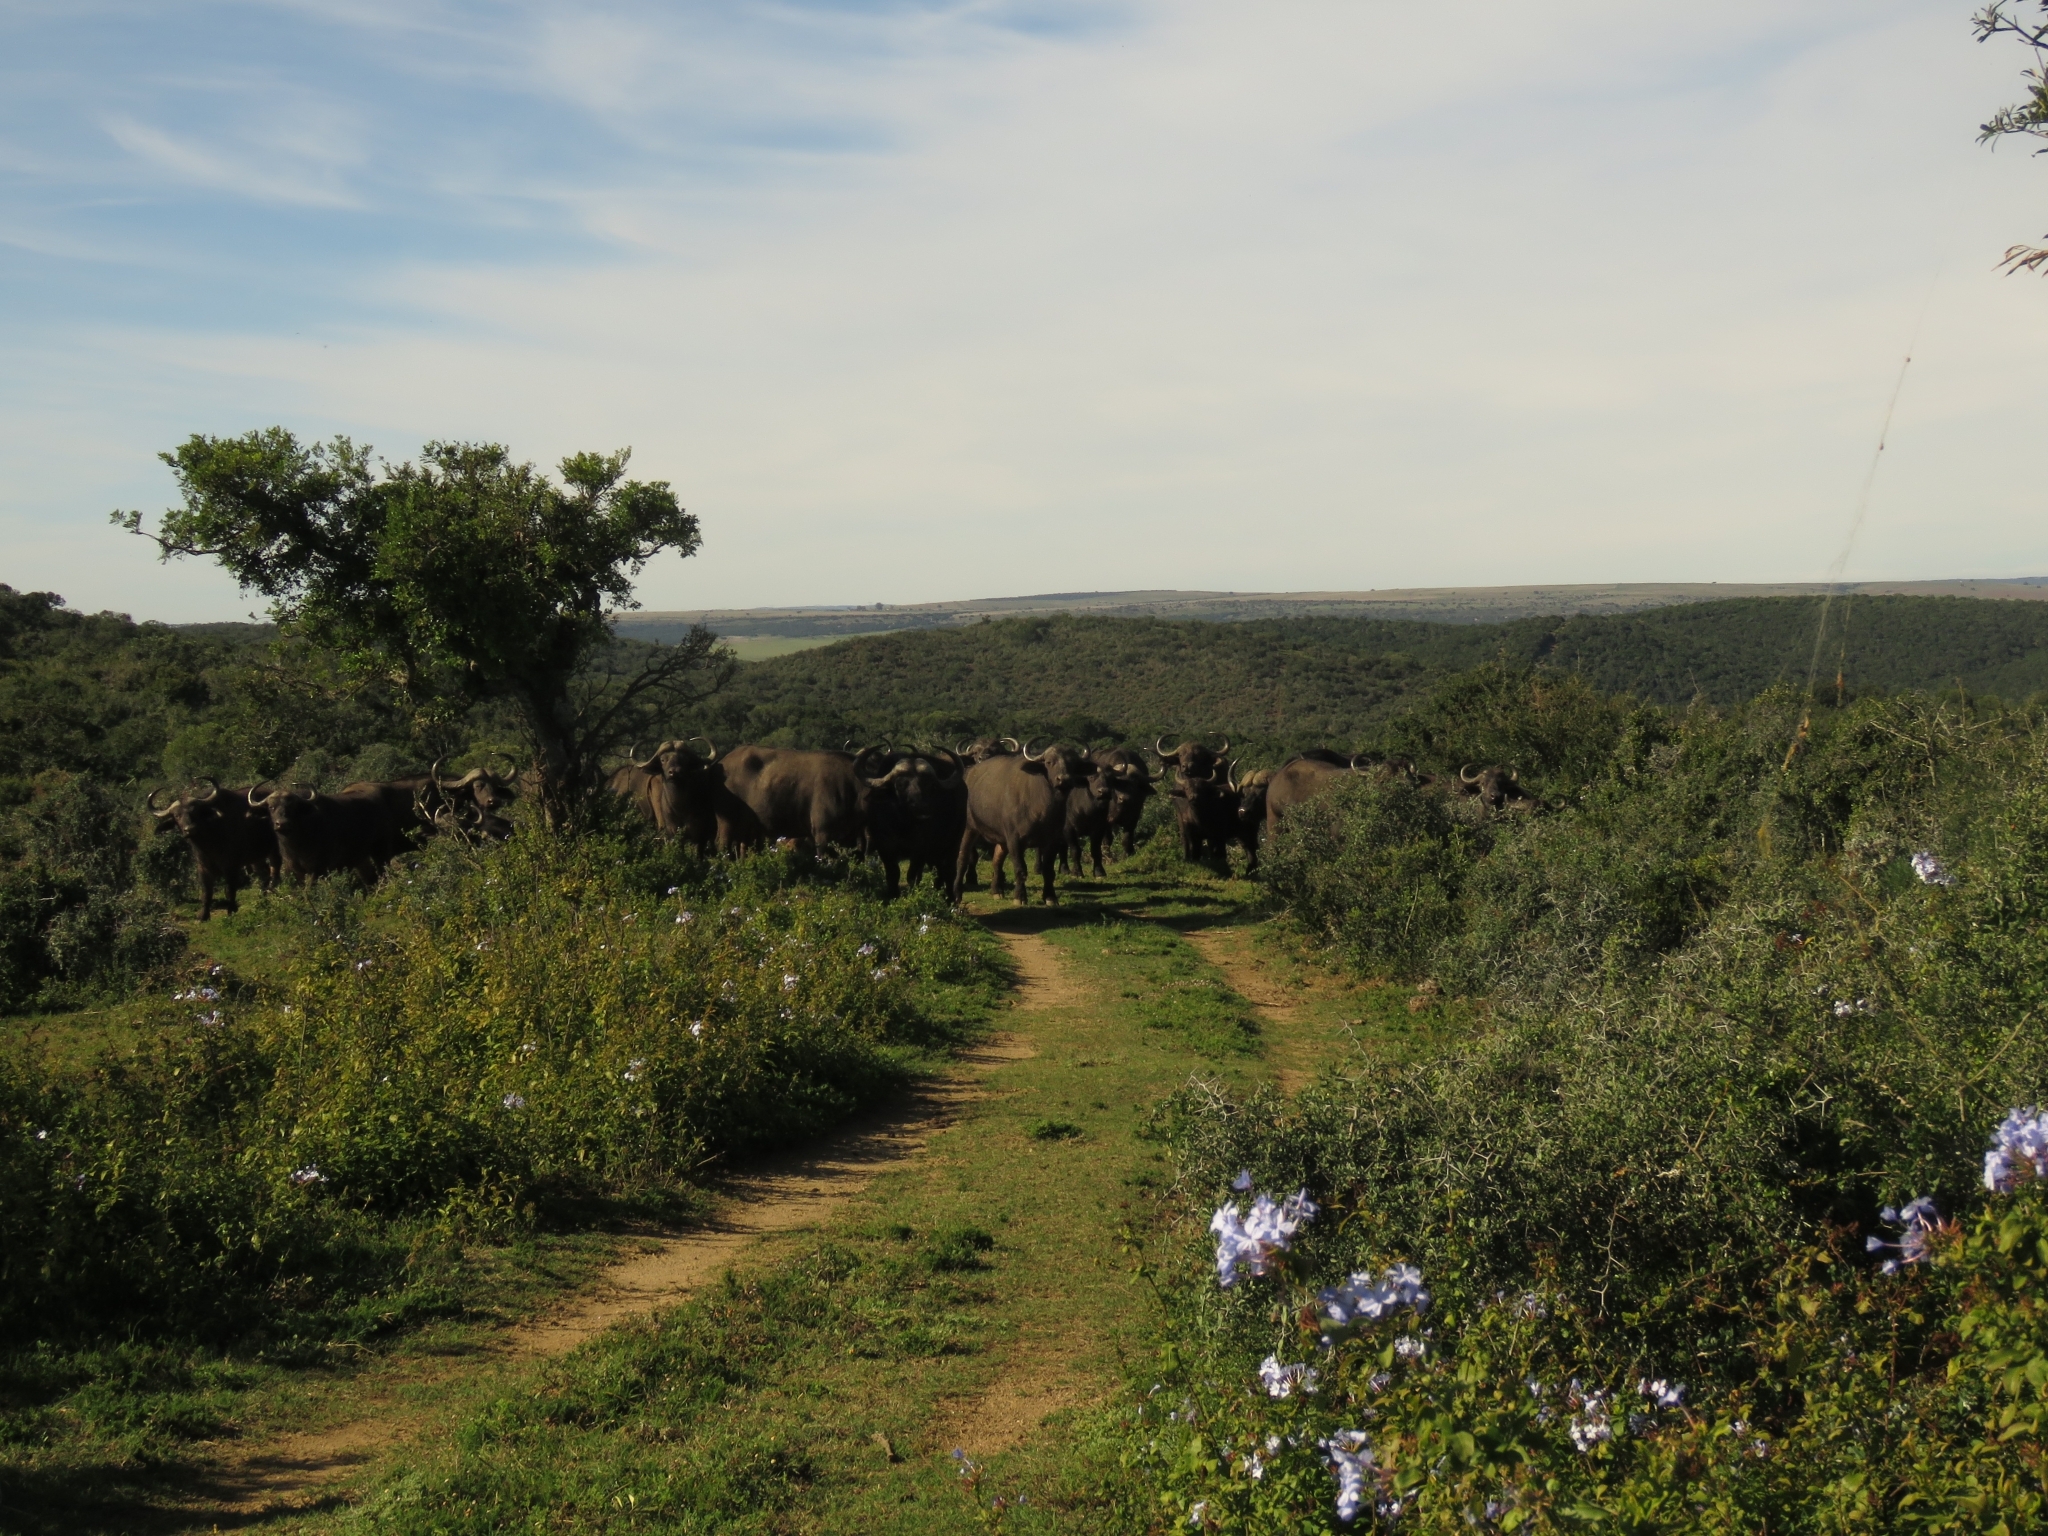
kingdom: Animalia
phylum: Chordata
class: Mammalia
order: Artiodactyla
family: Bovidae
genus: Syncerus
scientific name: Syncerus caffer
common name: African buffalo
